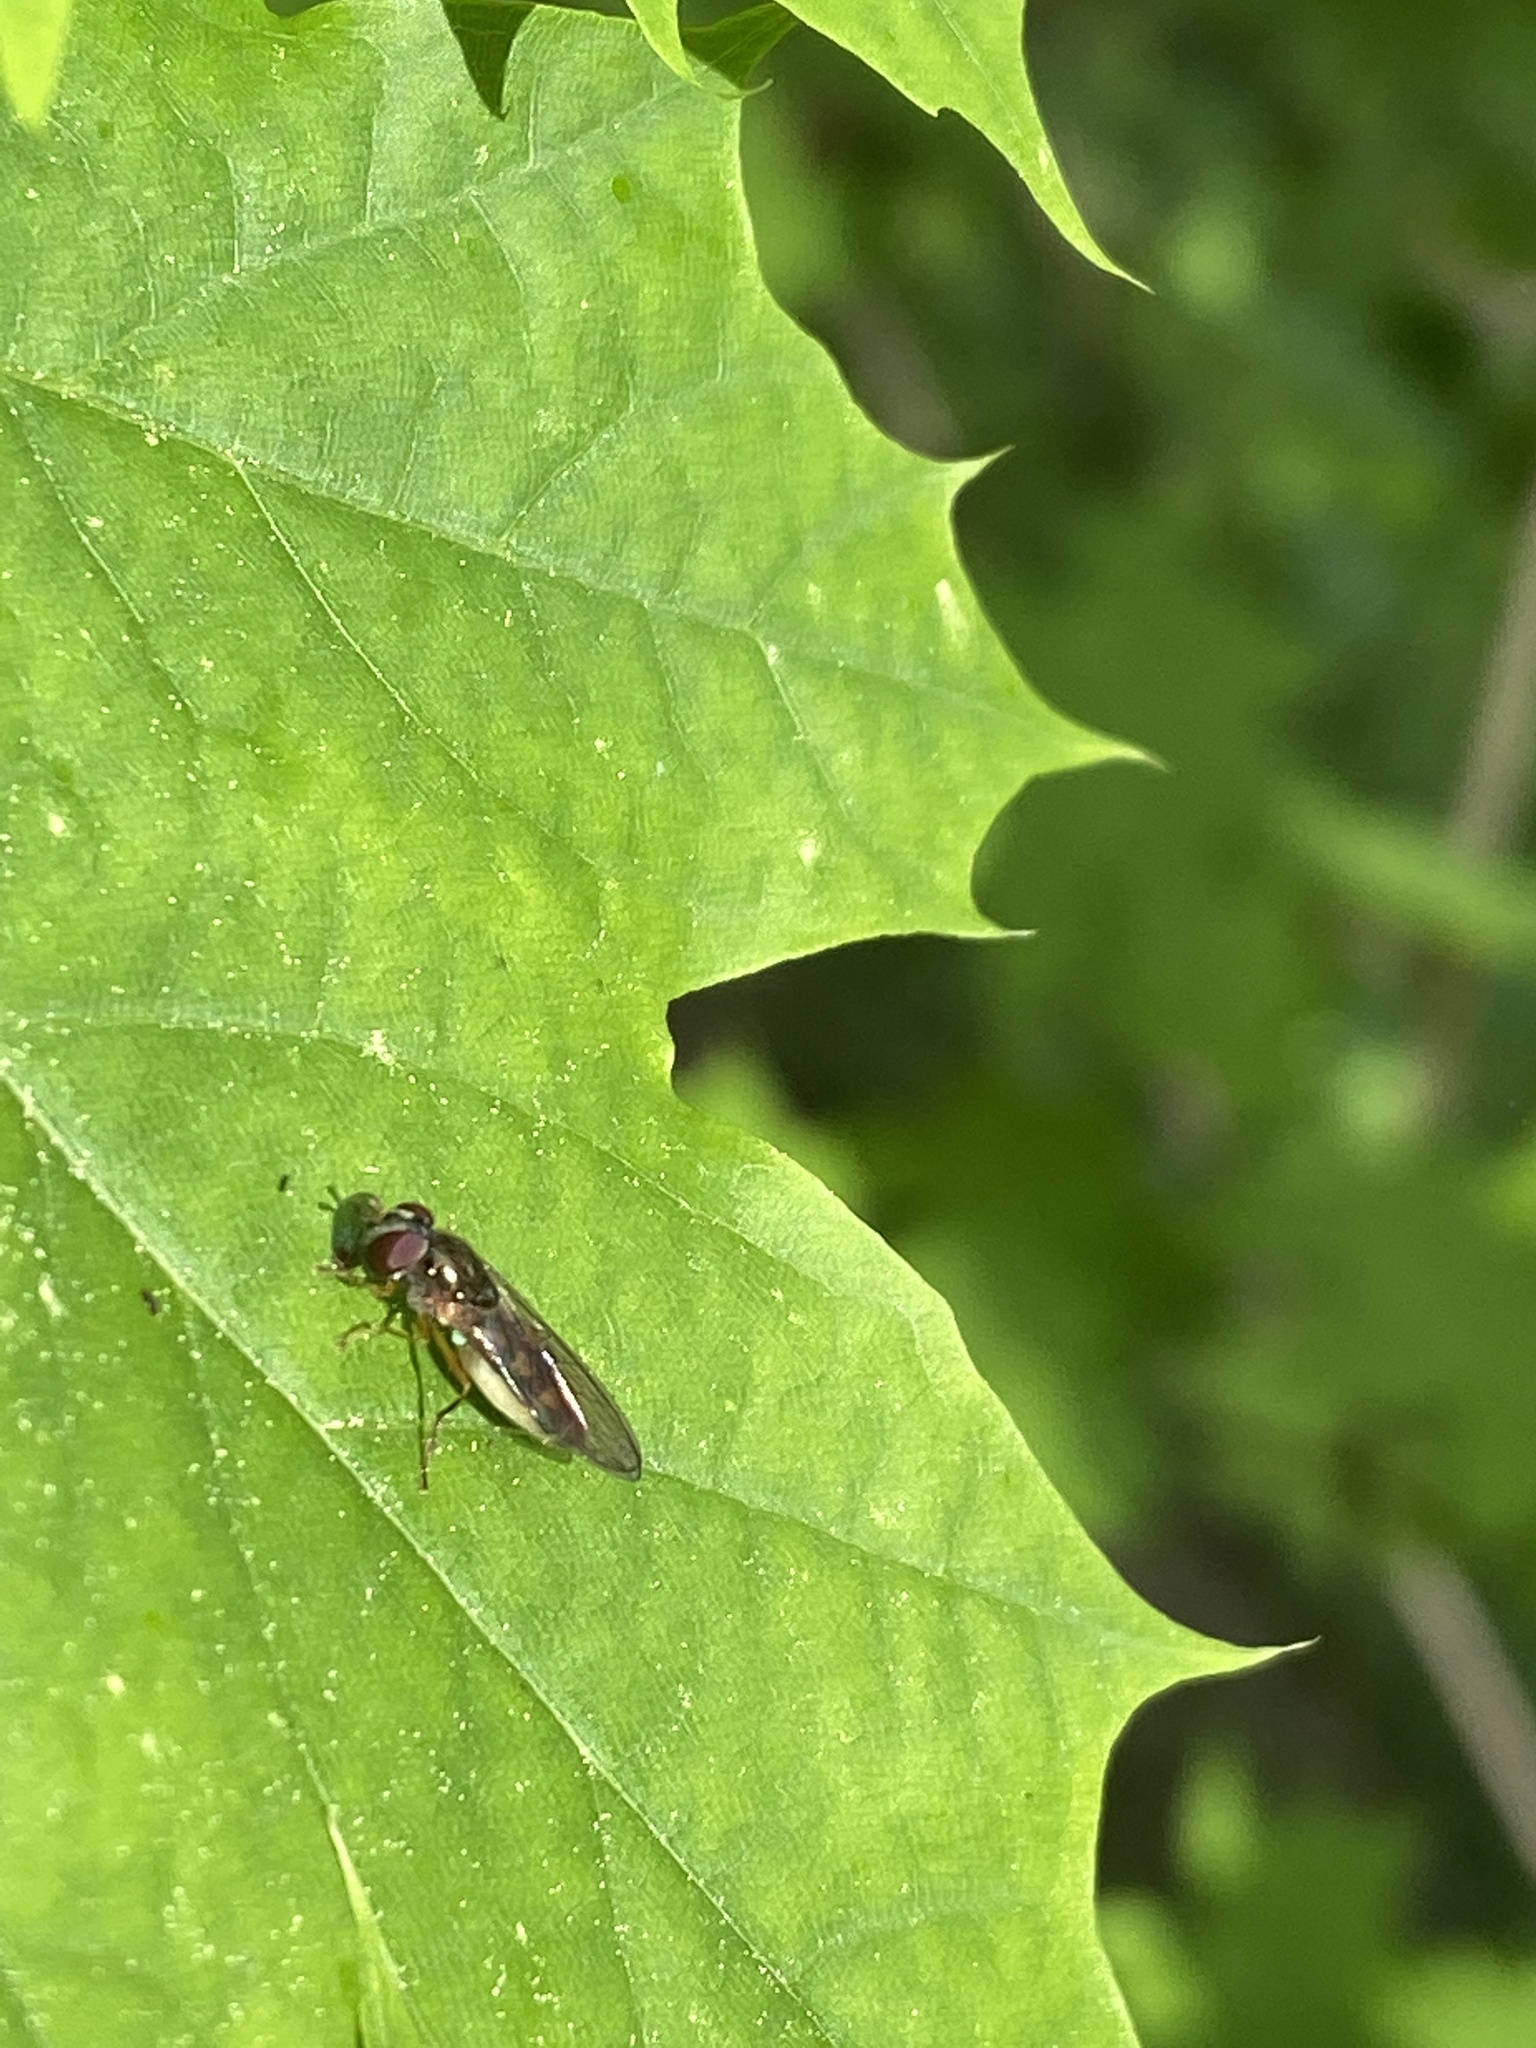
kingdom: Animalia
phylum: Arthropoda
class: Insecta
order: Diptera
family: Syrphidae
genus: Melanostoma
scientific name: Melanostoma scalare
